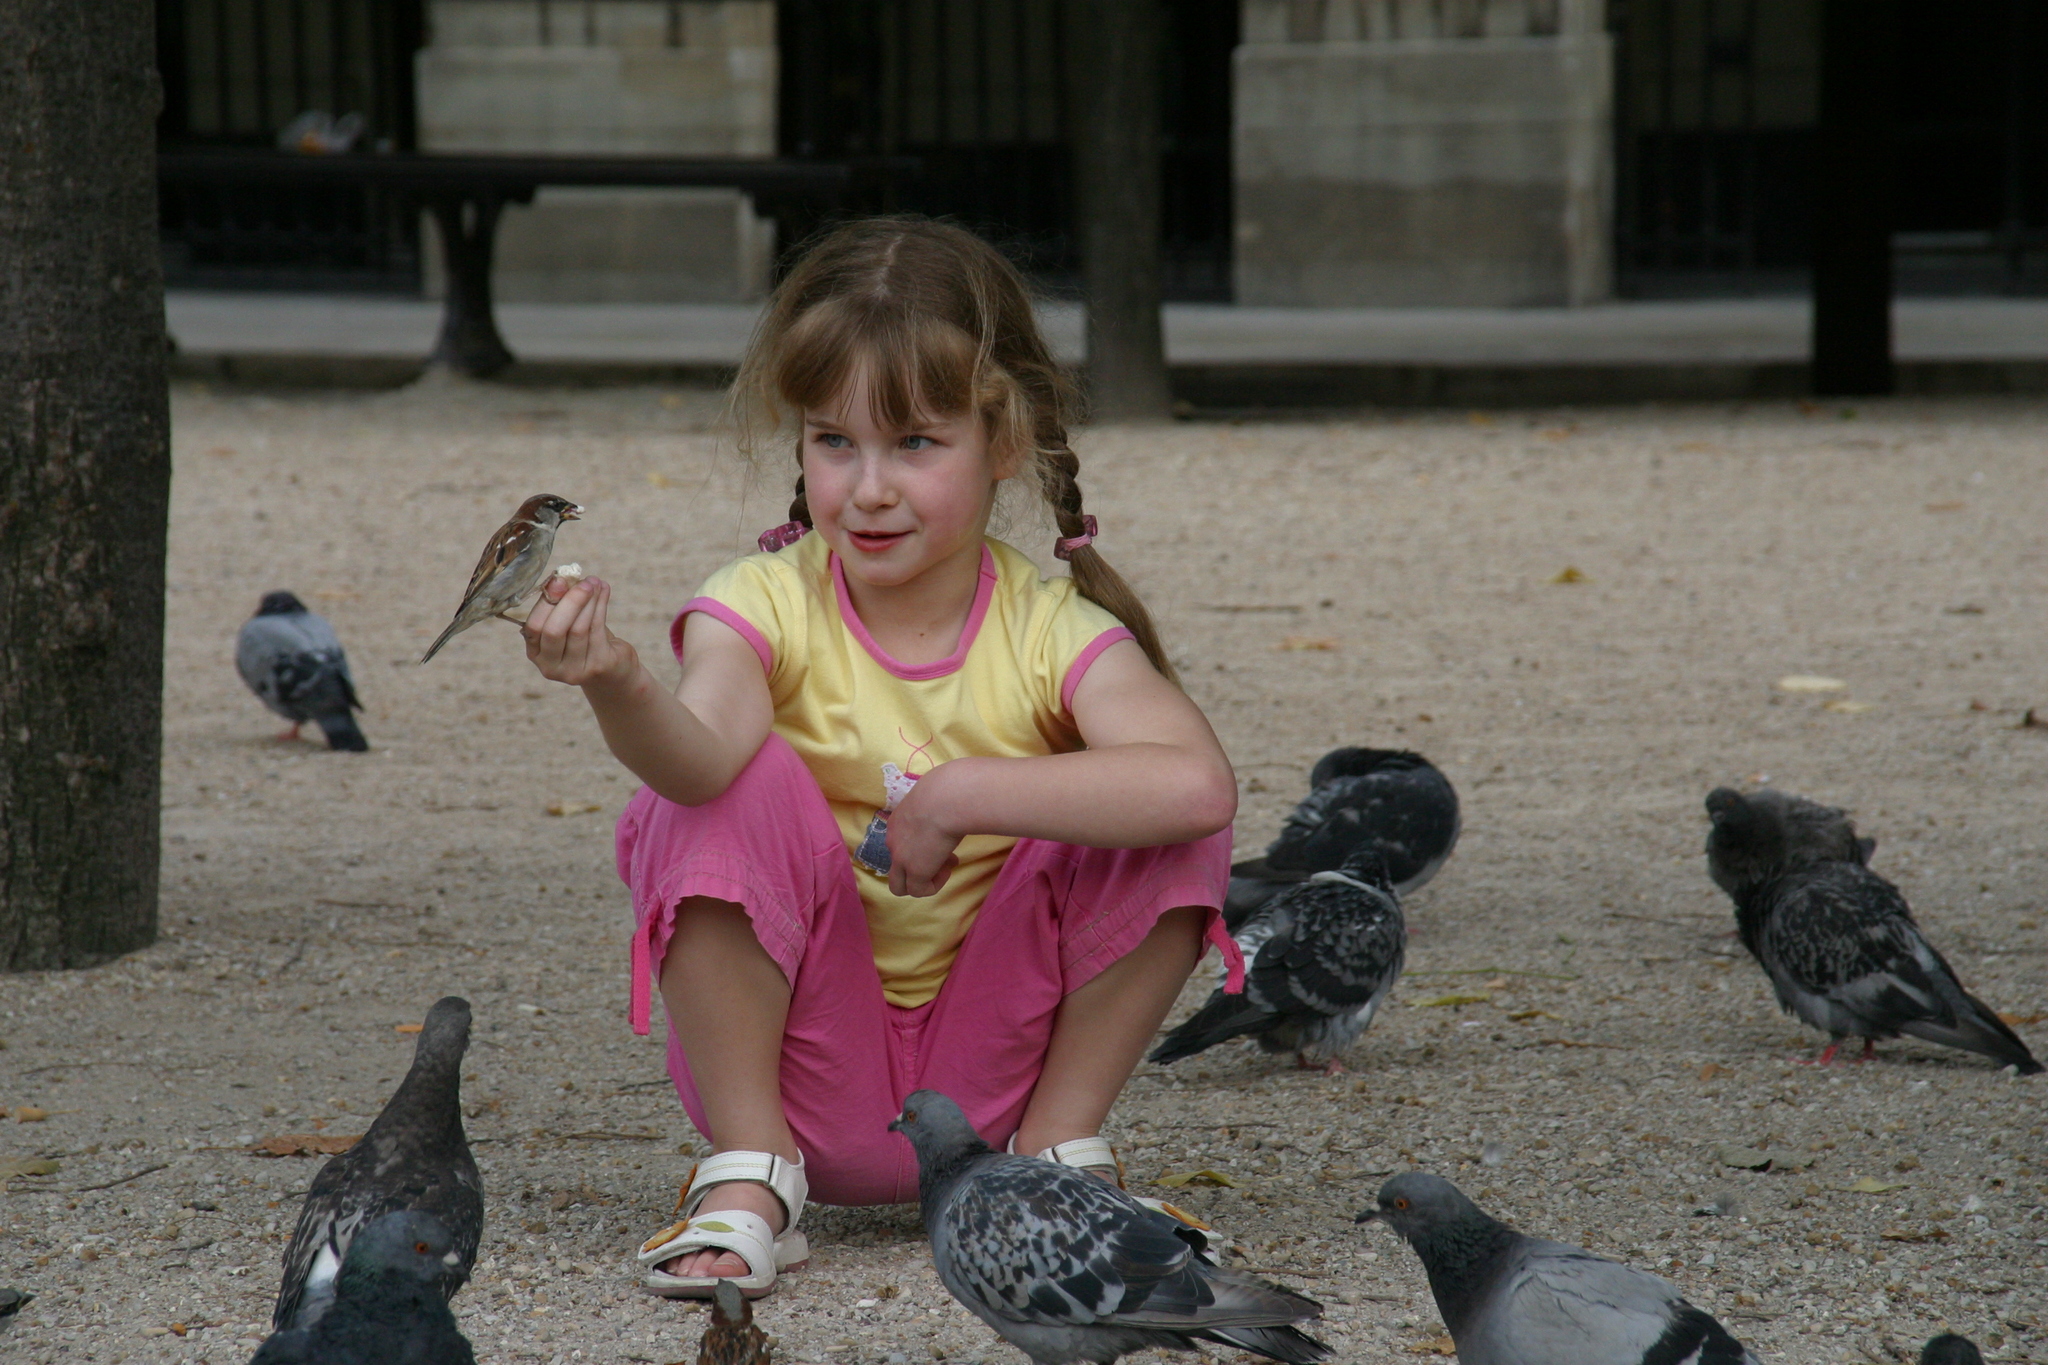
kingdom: Animalia
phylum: Chordata
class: Aves
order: Columbiformes
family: Columbidae
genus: Columba
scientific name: Columba livia
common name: Rock pigeon
